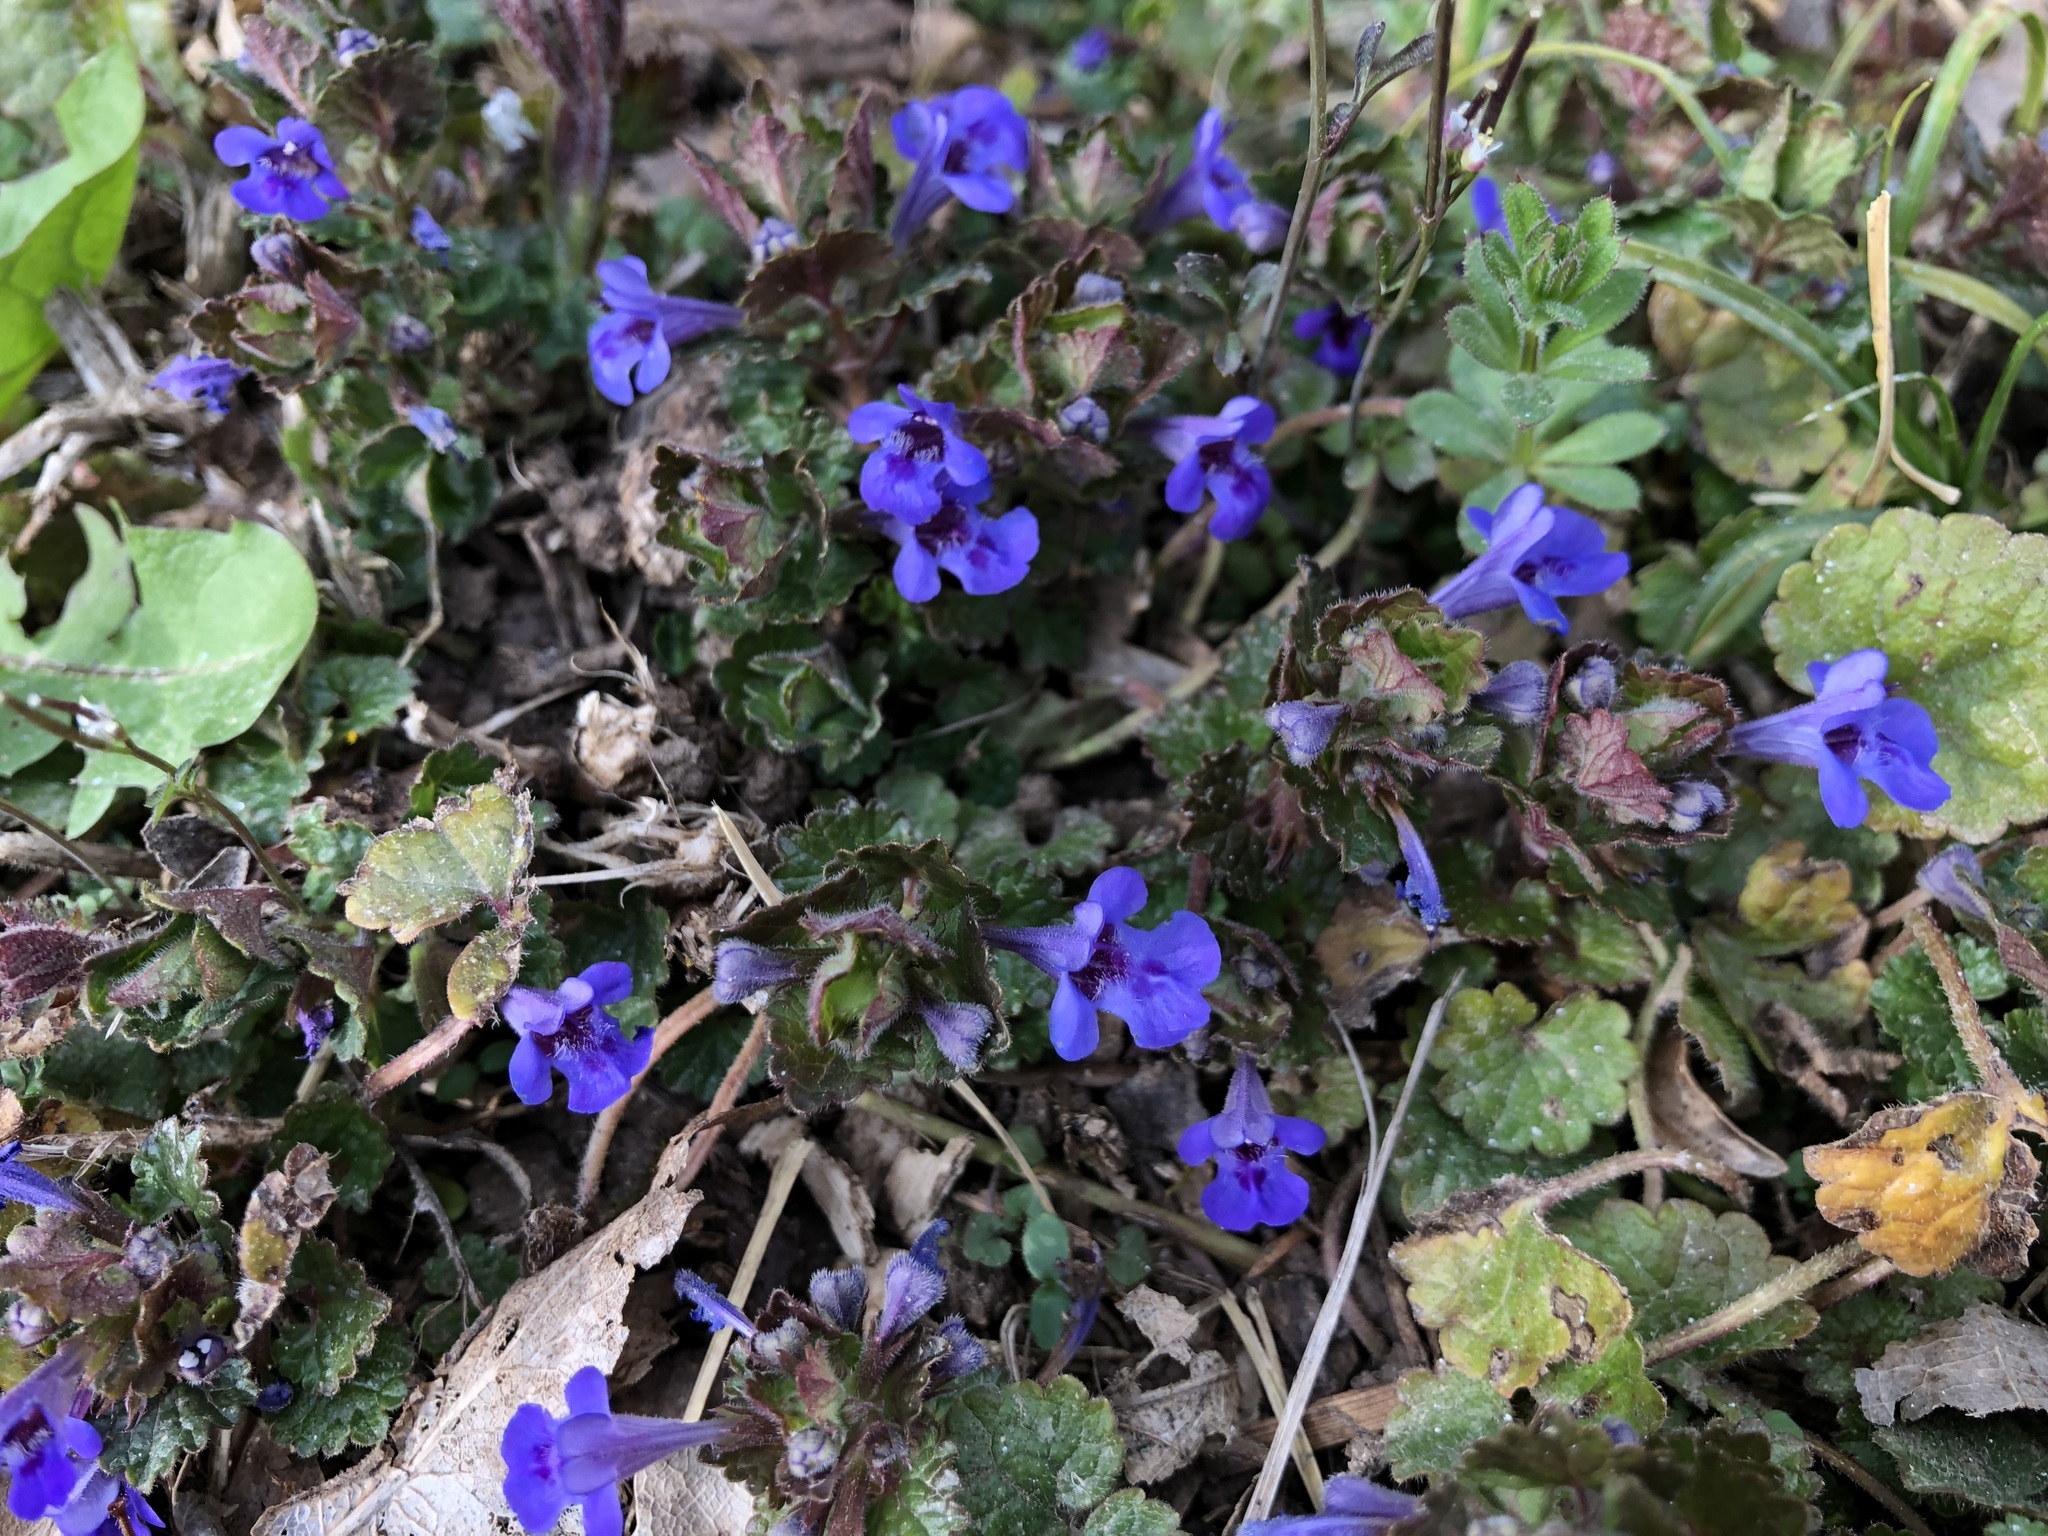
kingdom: Plantae
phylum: Tracheophyta
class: Magnoliopsida
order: Lamiales
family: Lamiaceae
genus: Glechoma
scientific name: Glechoma hederacea
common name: Ground ivy
